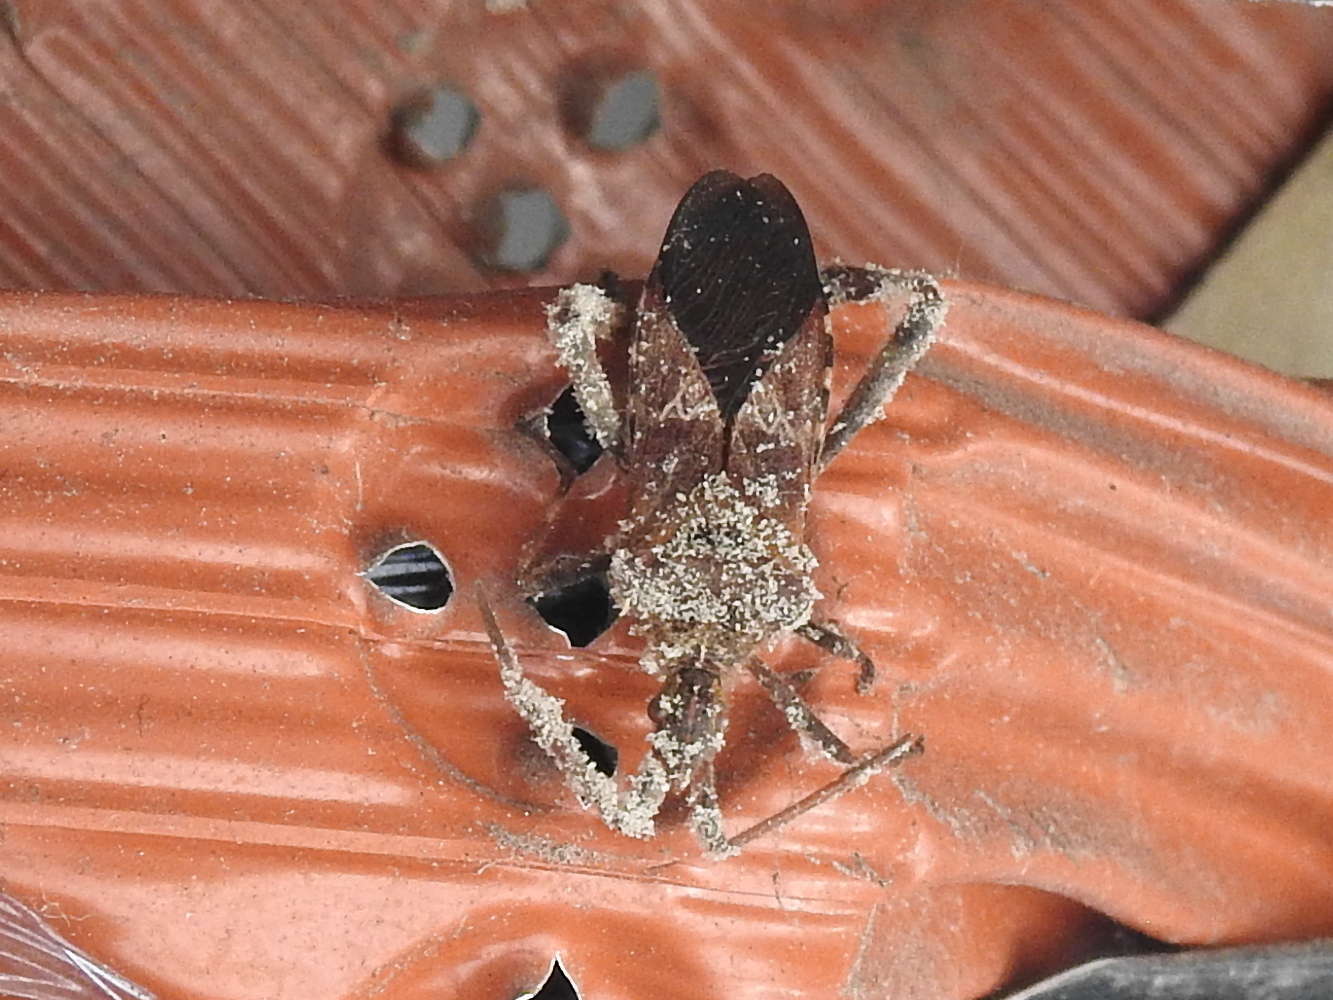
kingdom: Animalia
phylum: Arthropoda
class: Insecta
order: Hemiptera
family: Coreidae
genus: Leptoglossus
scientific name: Leptoglossus occidentalis
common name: Western conifer-seed bug
